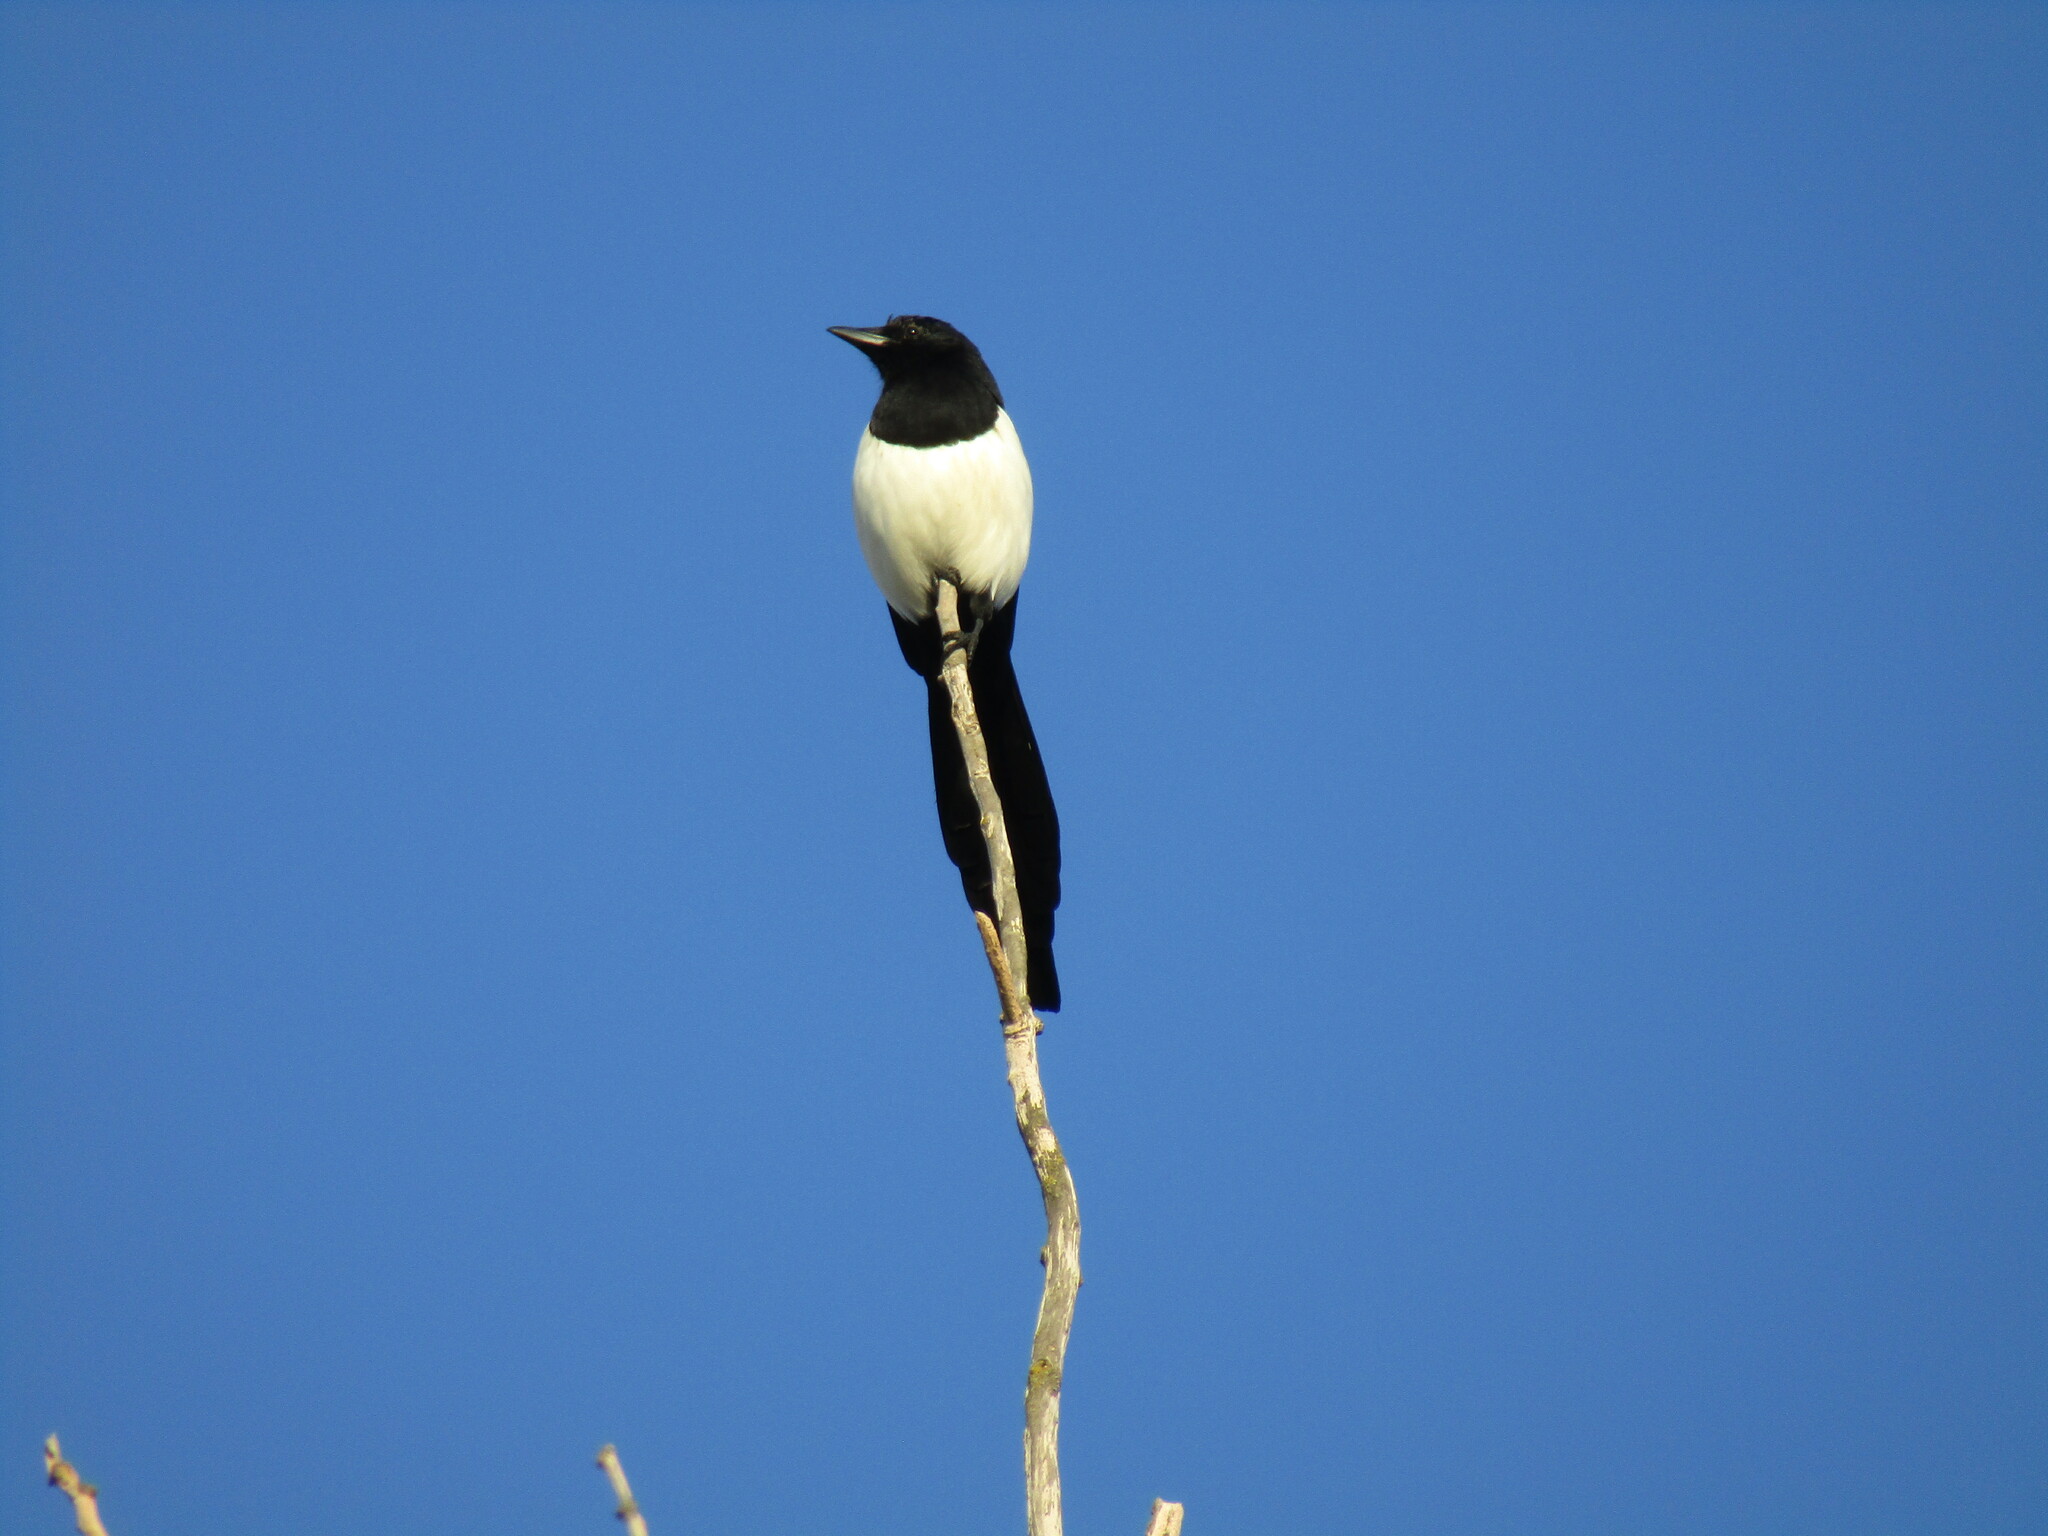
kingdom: Animalia
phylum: Chordata
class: Aves
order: Passeriformes
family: Corvidae
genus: Pica
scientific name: Pica pica
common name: Eurasian magpie
